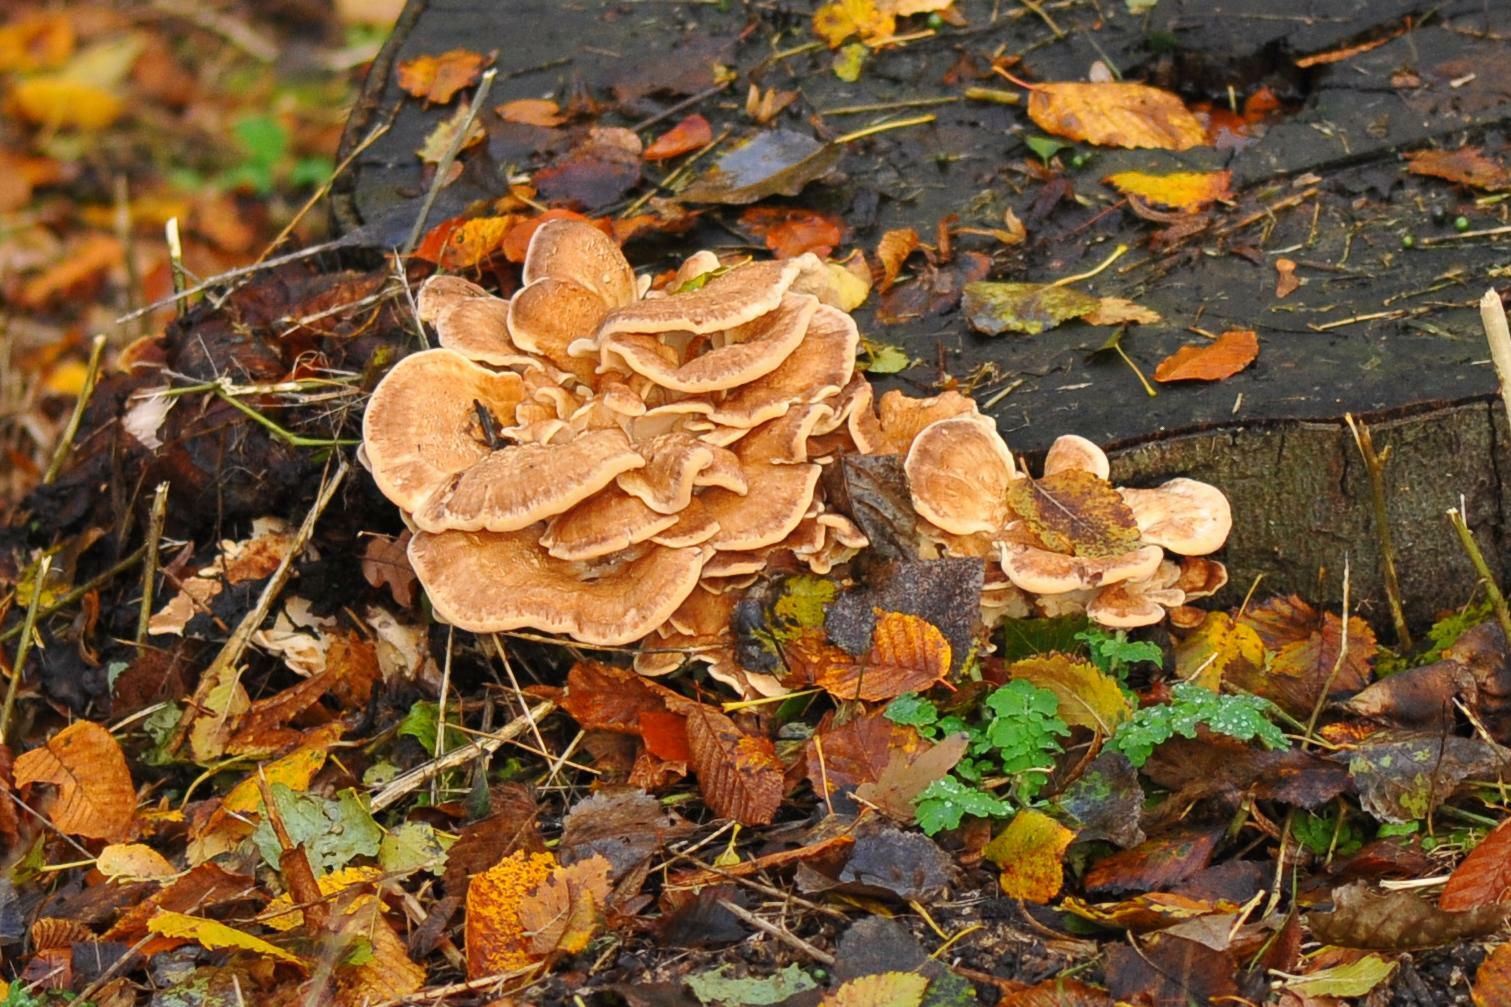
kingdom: Fungi
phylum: Basidiomycota
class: Agaricomycetes
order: Polyporales
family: Meripilaceae
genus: Meripilus
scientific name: Meripilus giganteus
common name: Giant polypore
